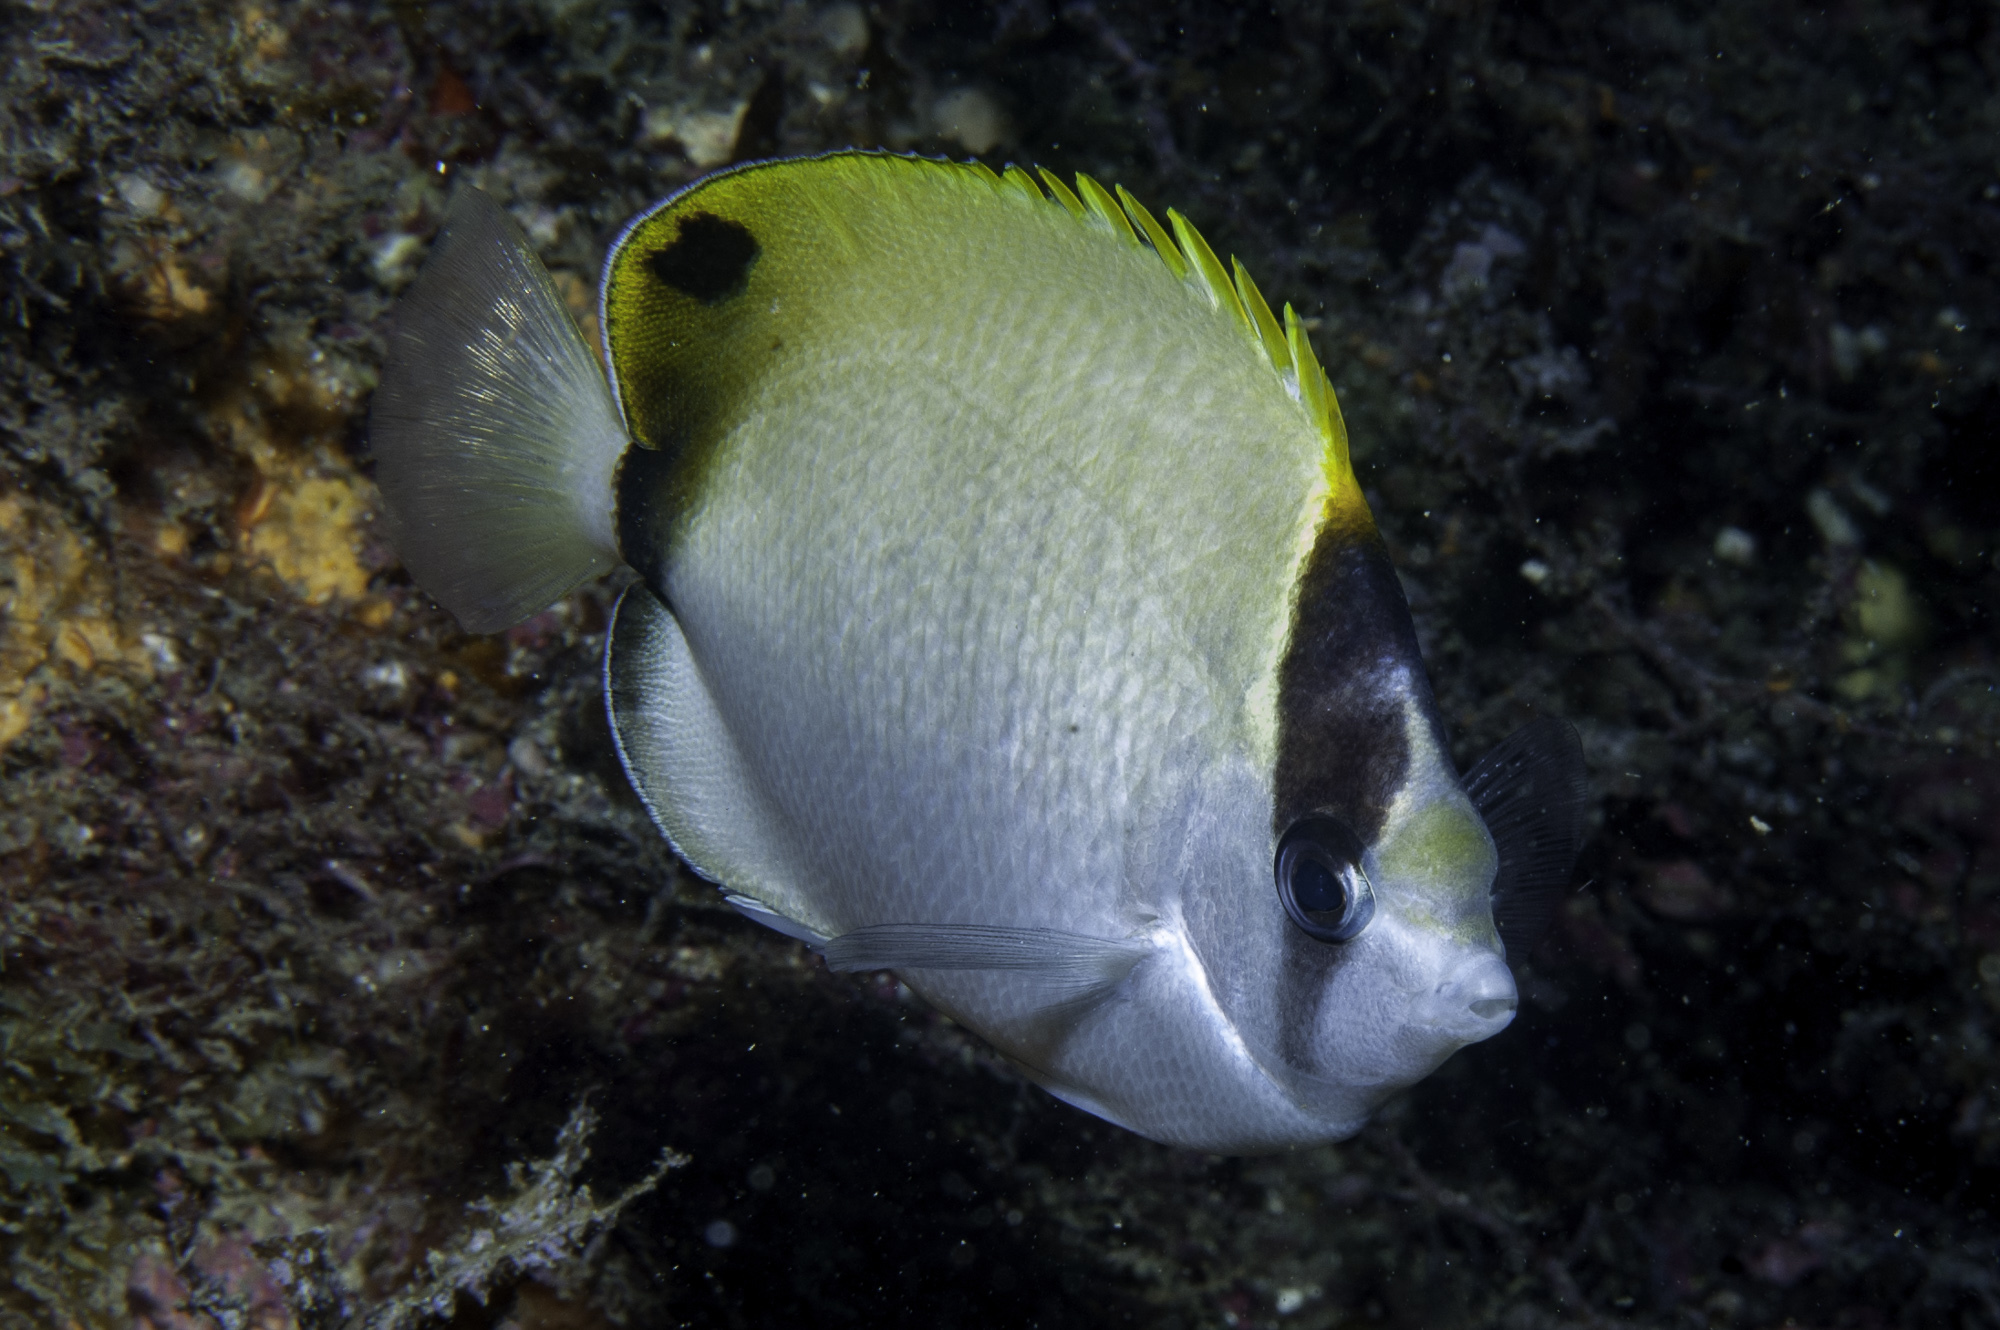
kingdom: Animalia
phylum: Chordata
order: Perciformes
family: Chaetodontidae
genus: Chaetodon
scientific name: Chaetodon sedentarius
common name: Reef butterflyfish
